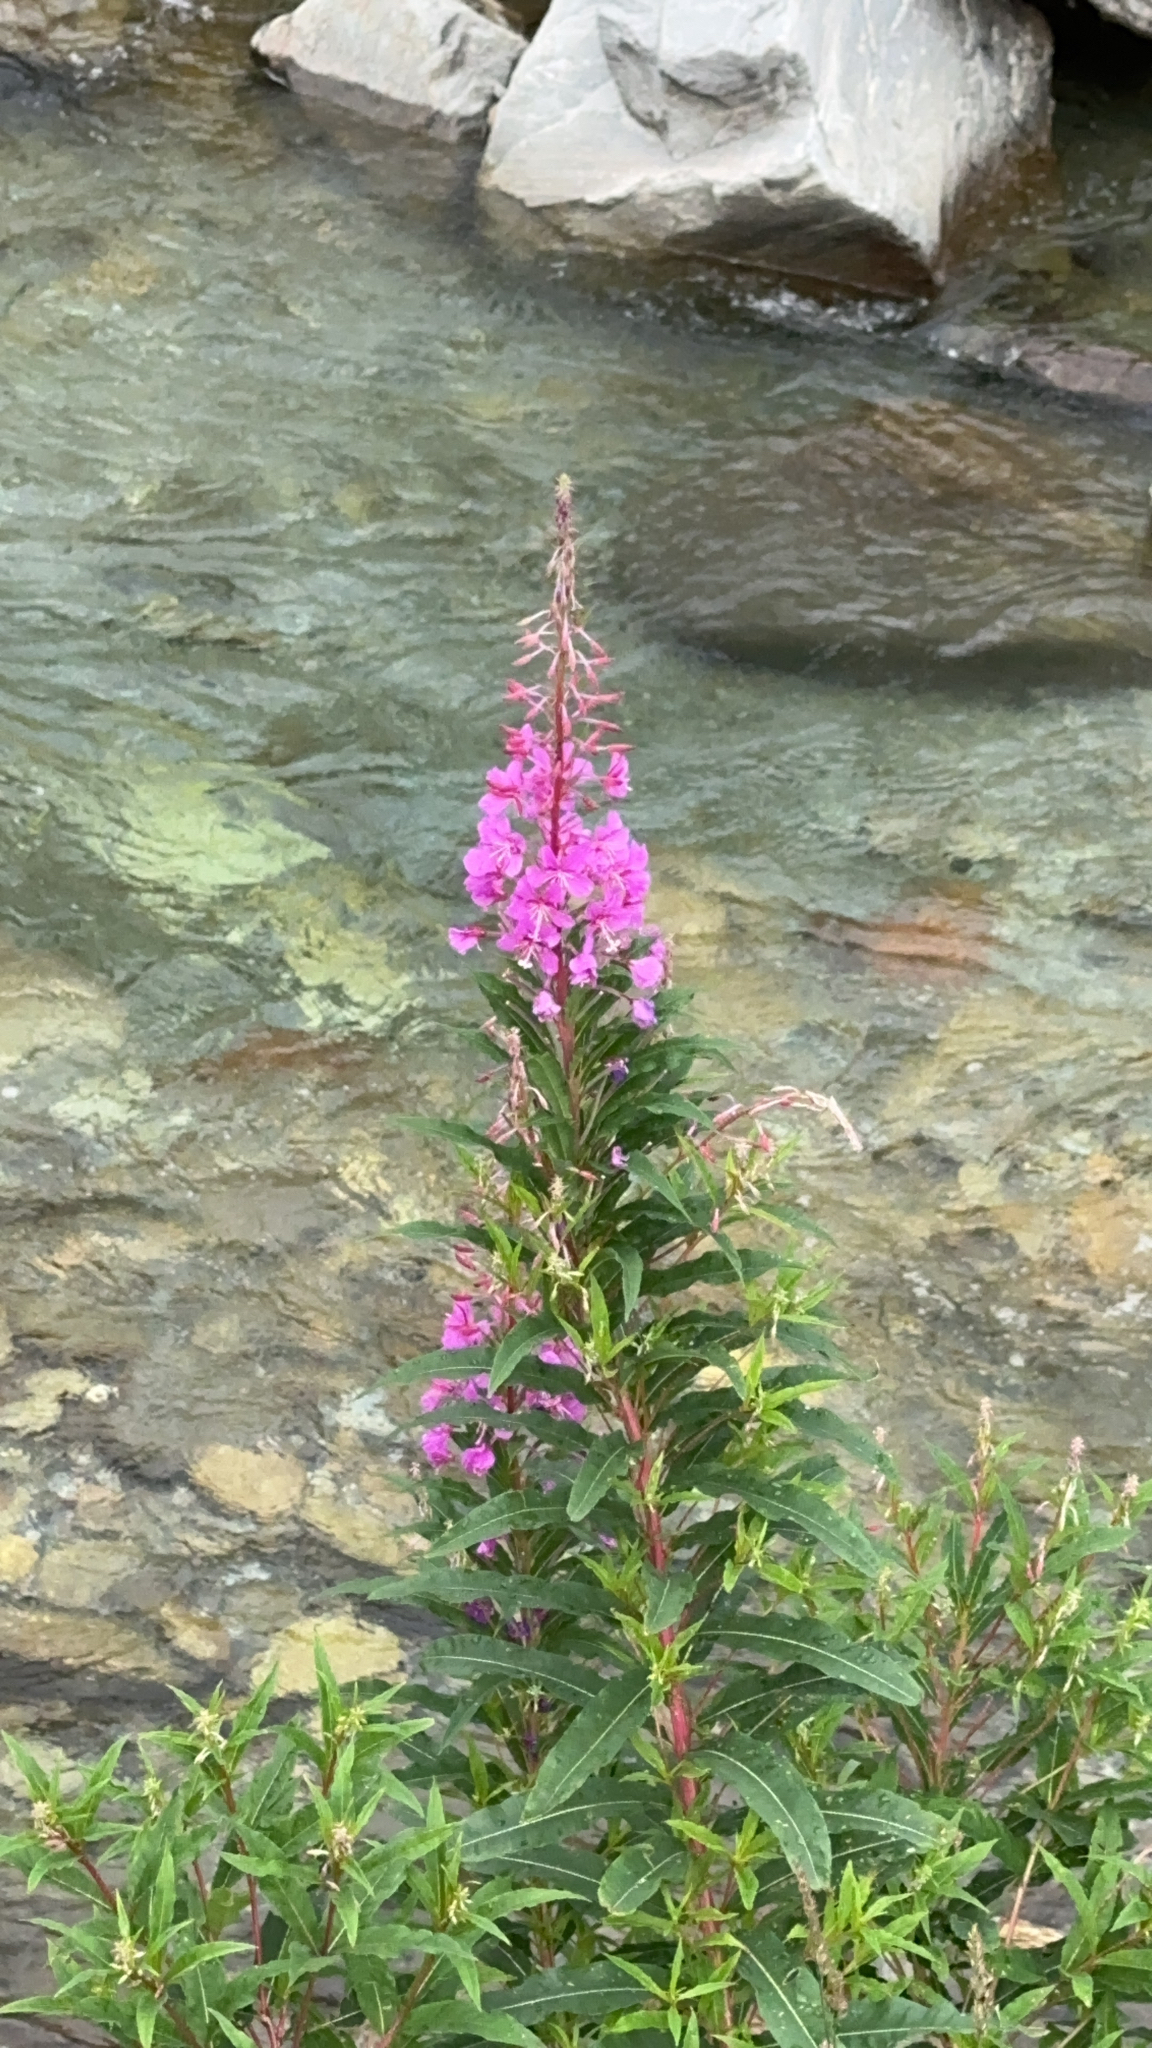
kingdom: Plantae
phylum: Tracheophyta
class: Magnoliopsida
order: Myrtales
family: Onagraceae
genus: Chamaenerion
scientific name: Chamaenerion angustifolium
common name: Fireweed
